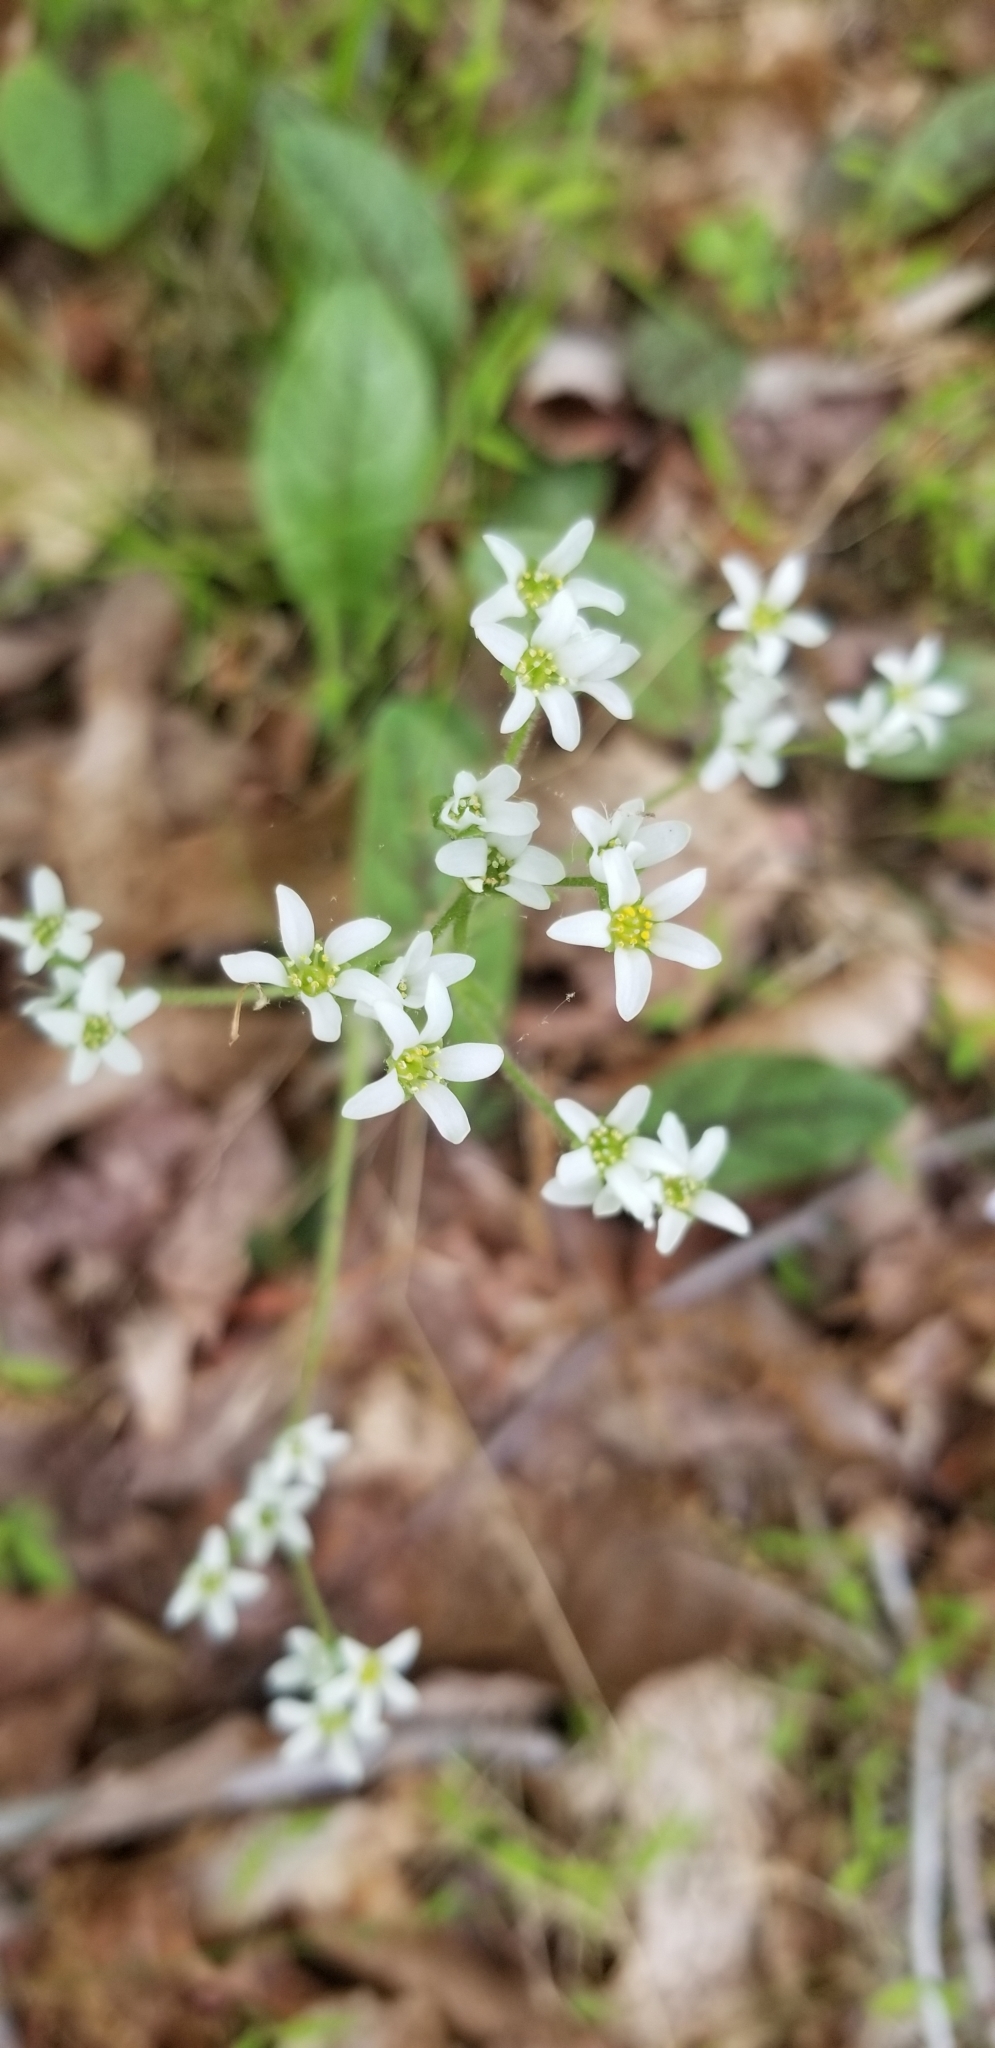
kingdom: Plantae
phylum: Tracheophyta
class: Magnoliopsida
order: Saxifragales
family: Saxifragaceae
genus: Micranthes
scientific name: Micranthes virginiensis
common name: Early saxifrage
